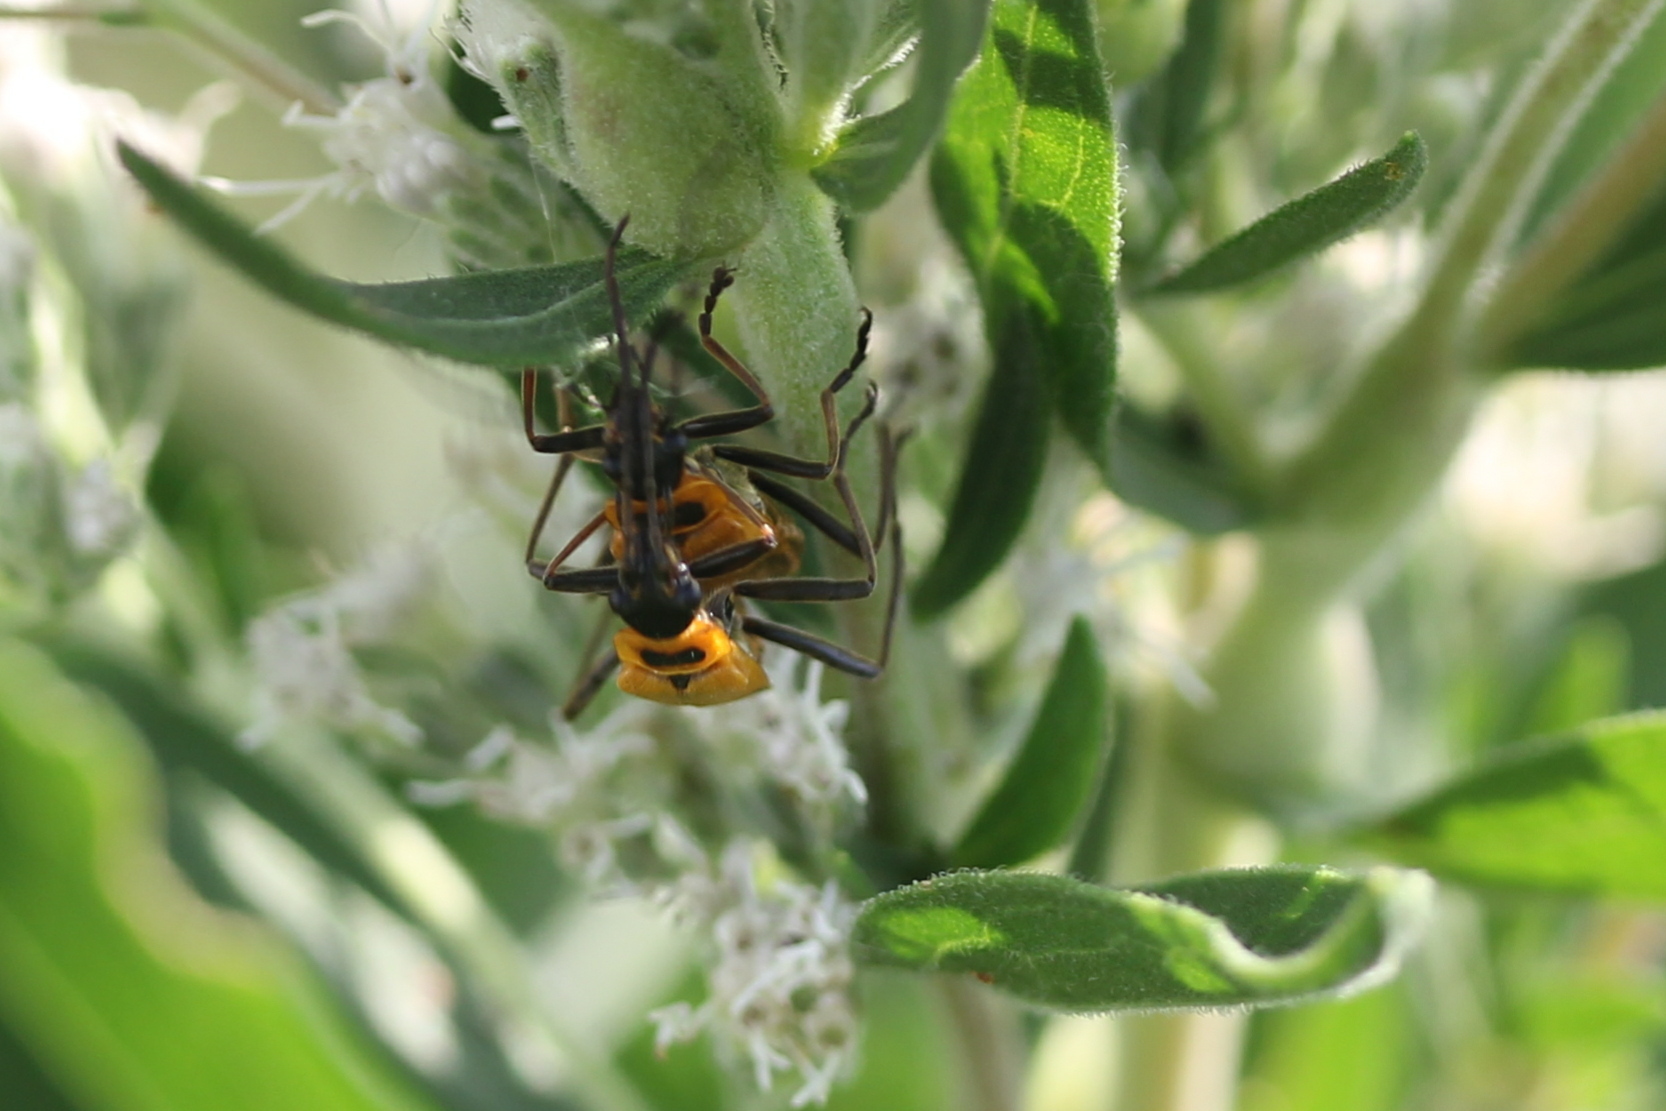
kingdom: Animalia
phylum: Arthropoda
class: Insecta
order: Coleoptera
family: Cantharidae
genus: Chauliognathus
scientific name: Chauliognathus pensylvanicus
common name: Goldenrod soldier beetle
